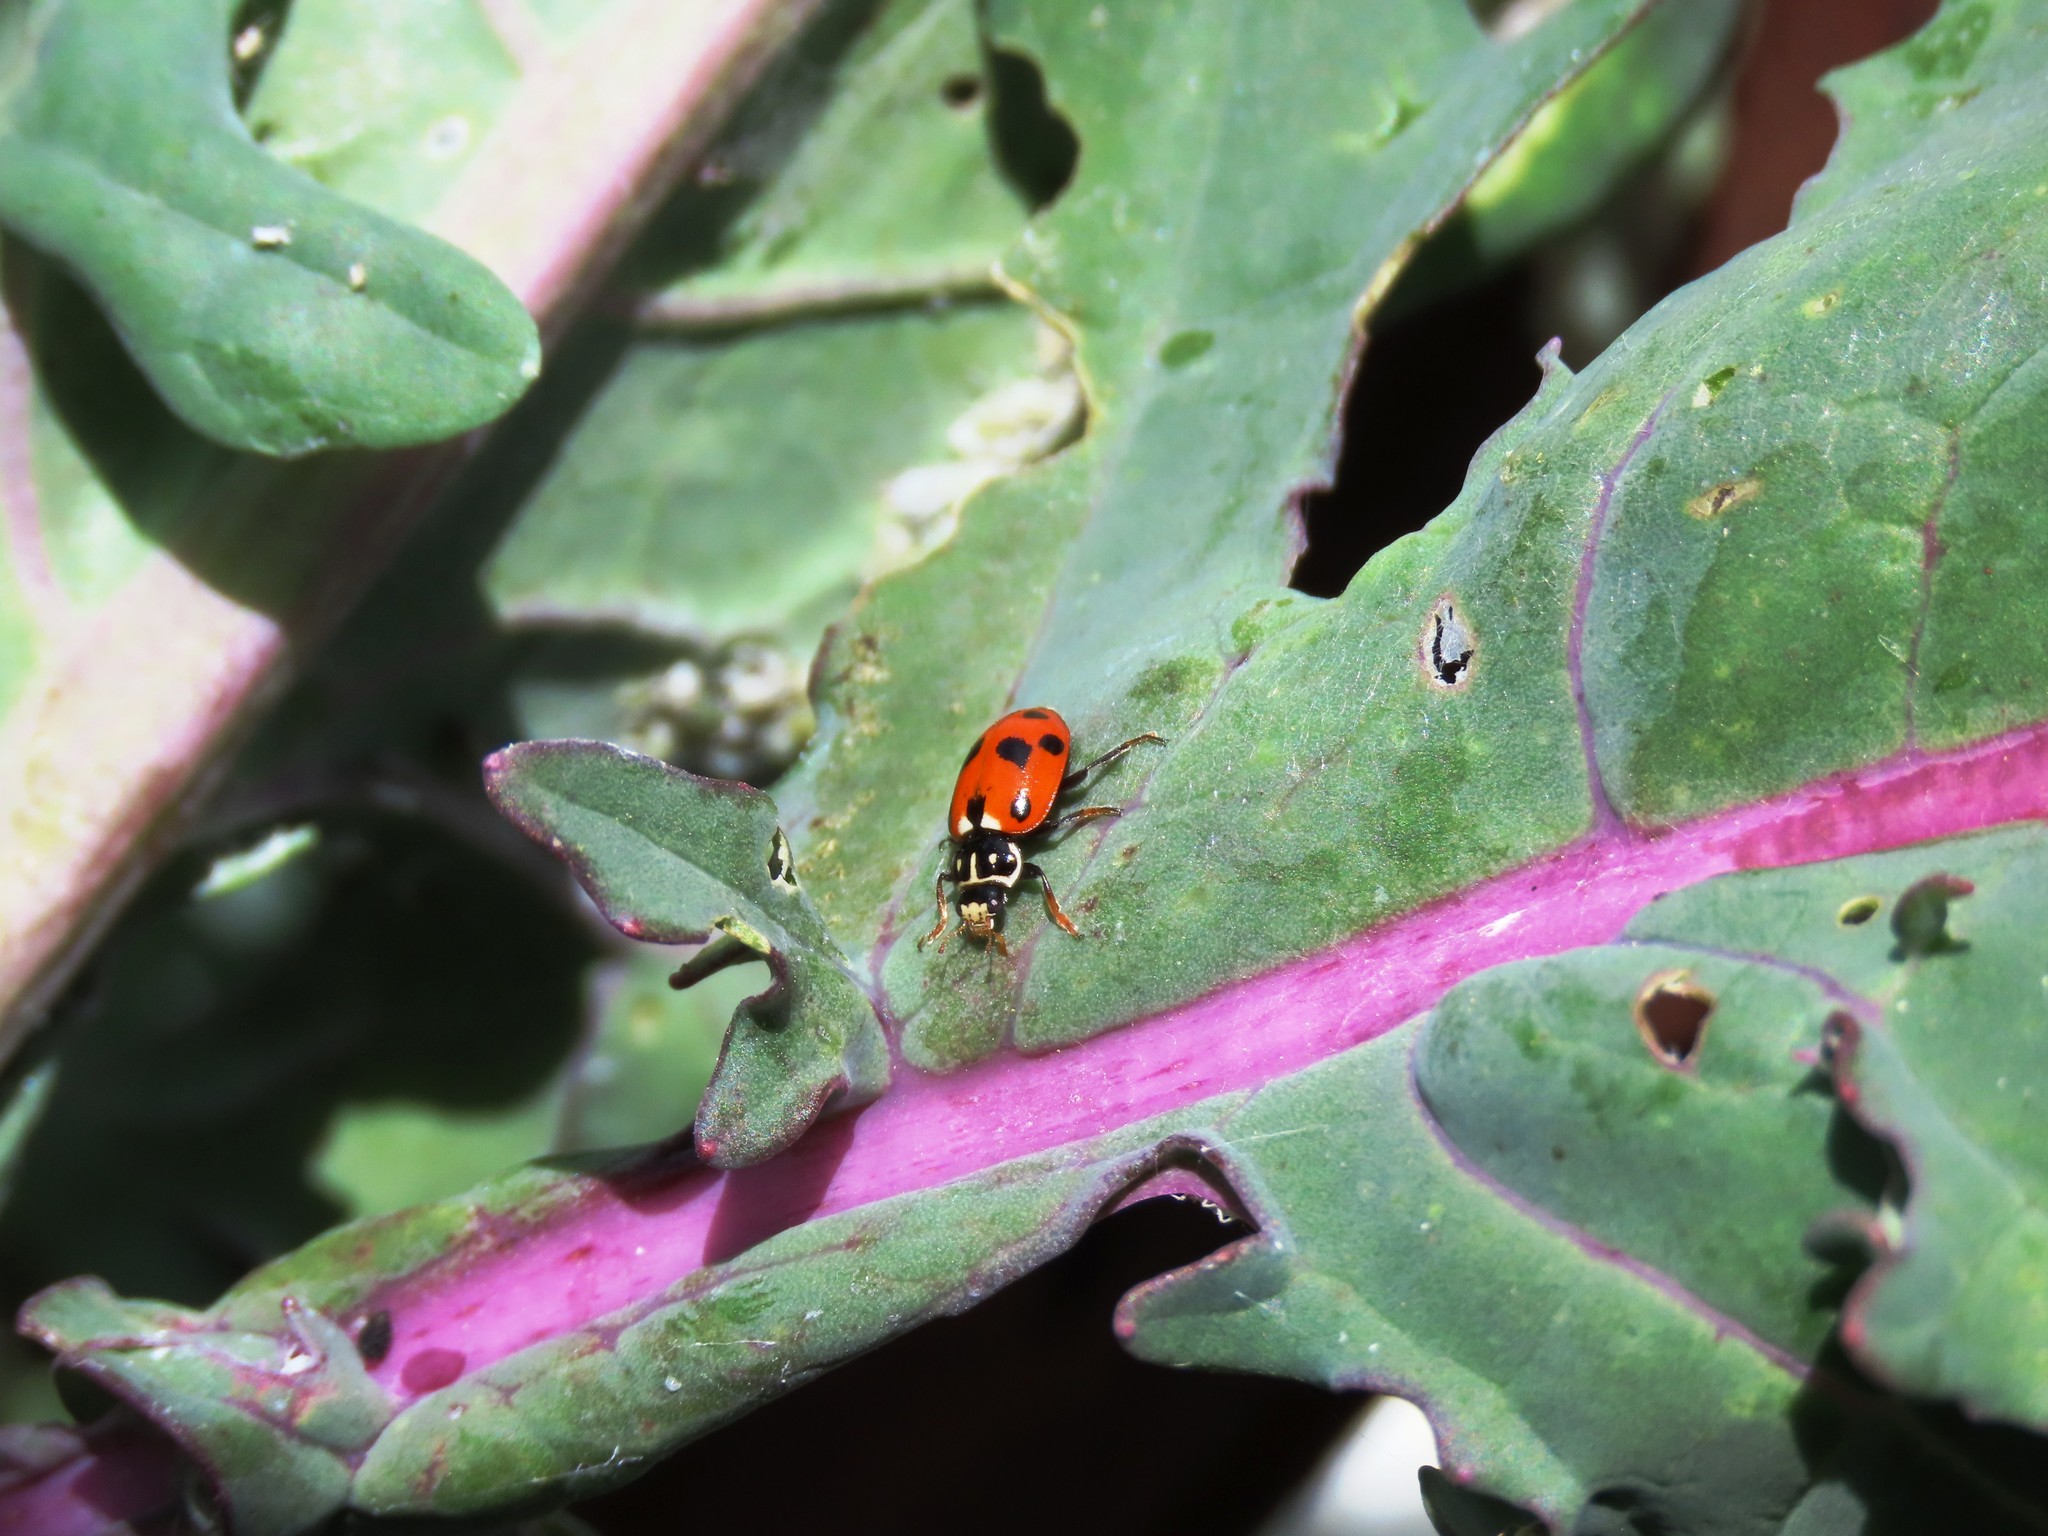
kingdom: Animalia
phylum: Arthropoda
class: Insecta
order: Coleoptera
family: Coccinellidae
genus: Hippodamia
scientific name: Hippodamia variegata
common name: Ladybird beetle
